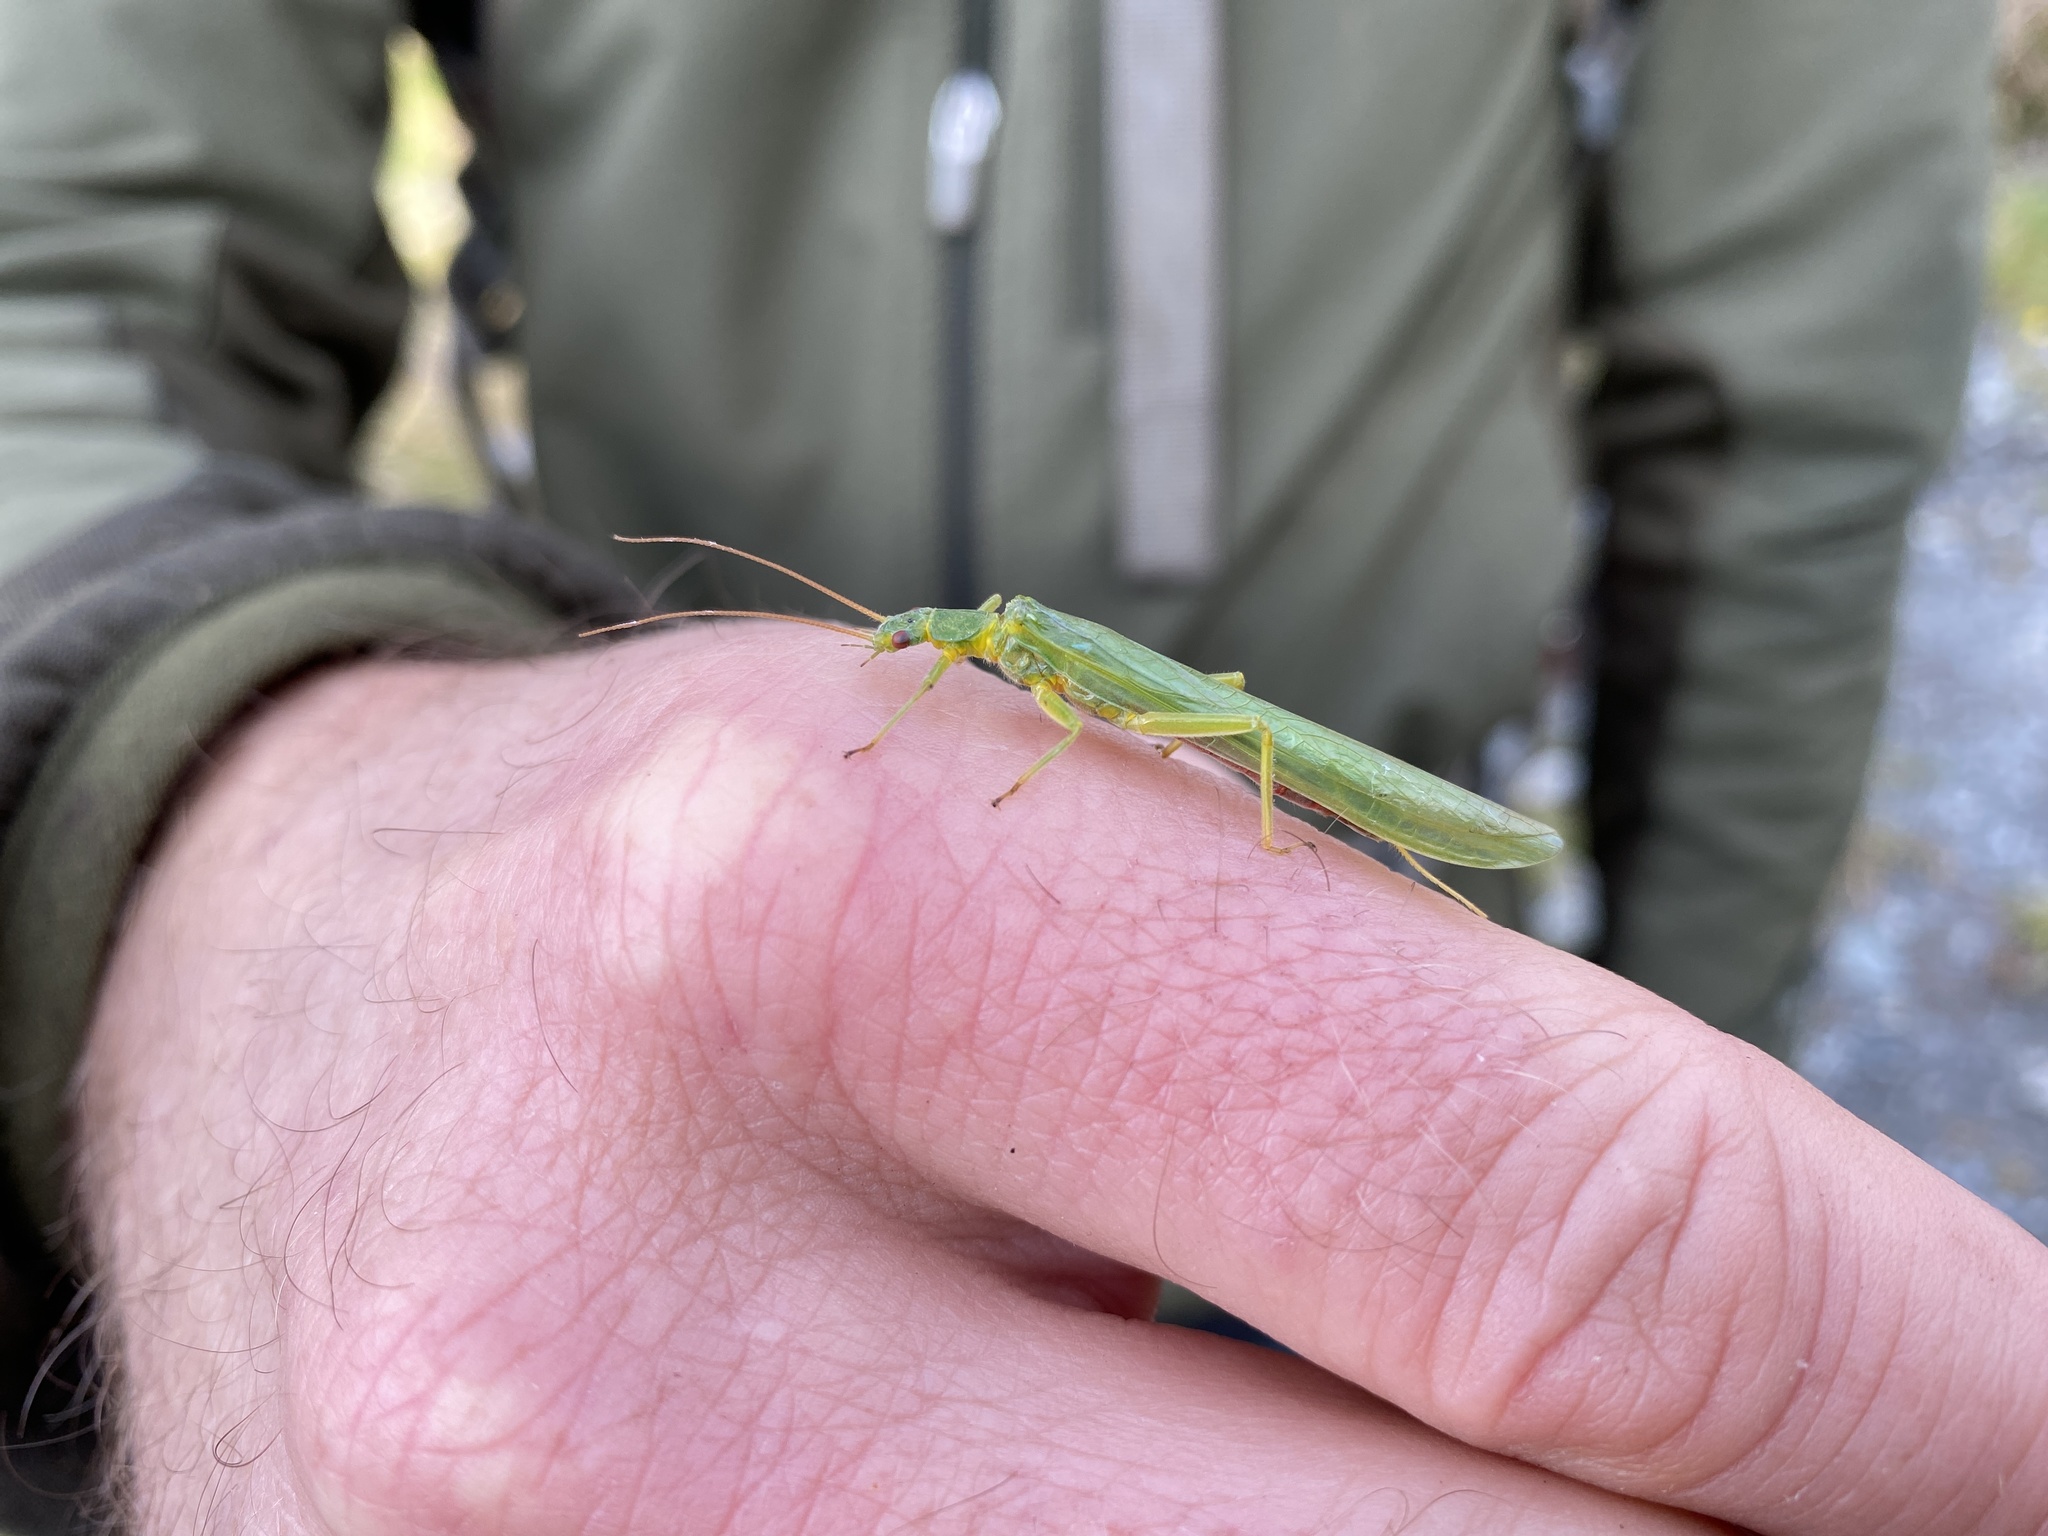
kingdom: Animalia
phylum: Arthropoda
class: Insecta
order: Plecoptera
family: Eustheniidae
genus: Stenoperla
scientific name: Stenoperla
